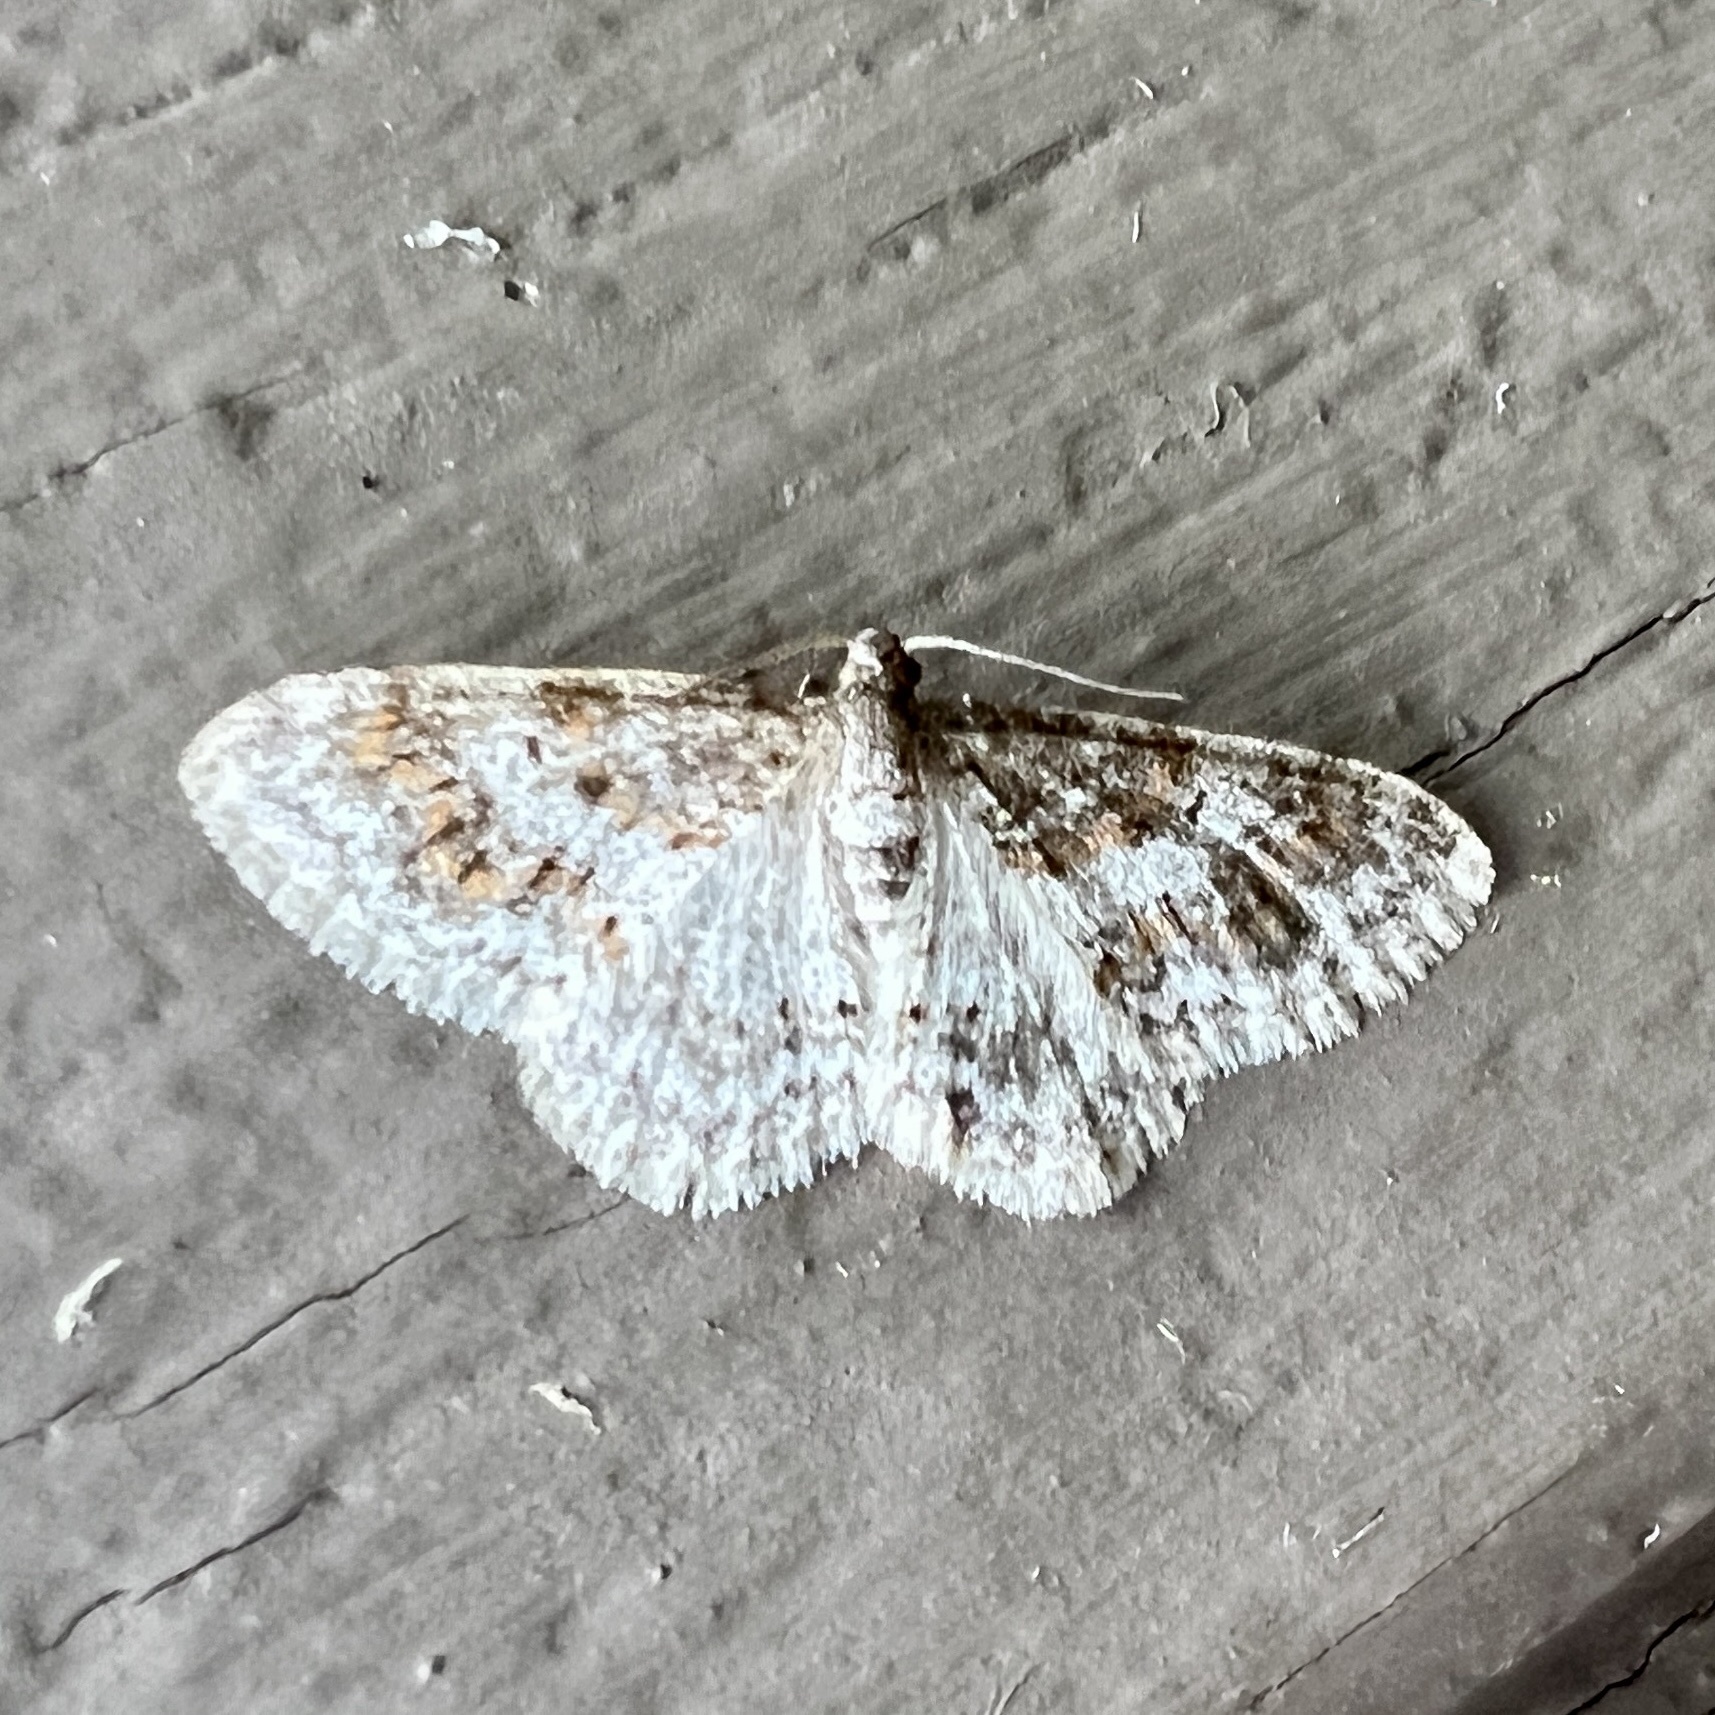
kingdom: Animalia
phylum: Arthropoda
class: Insecta
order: Lepidoptera
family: Geometridae
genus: Hydrelia
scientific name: Hydrelia inornata
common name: Unadorned carpet moth
